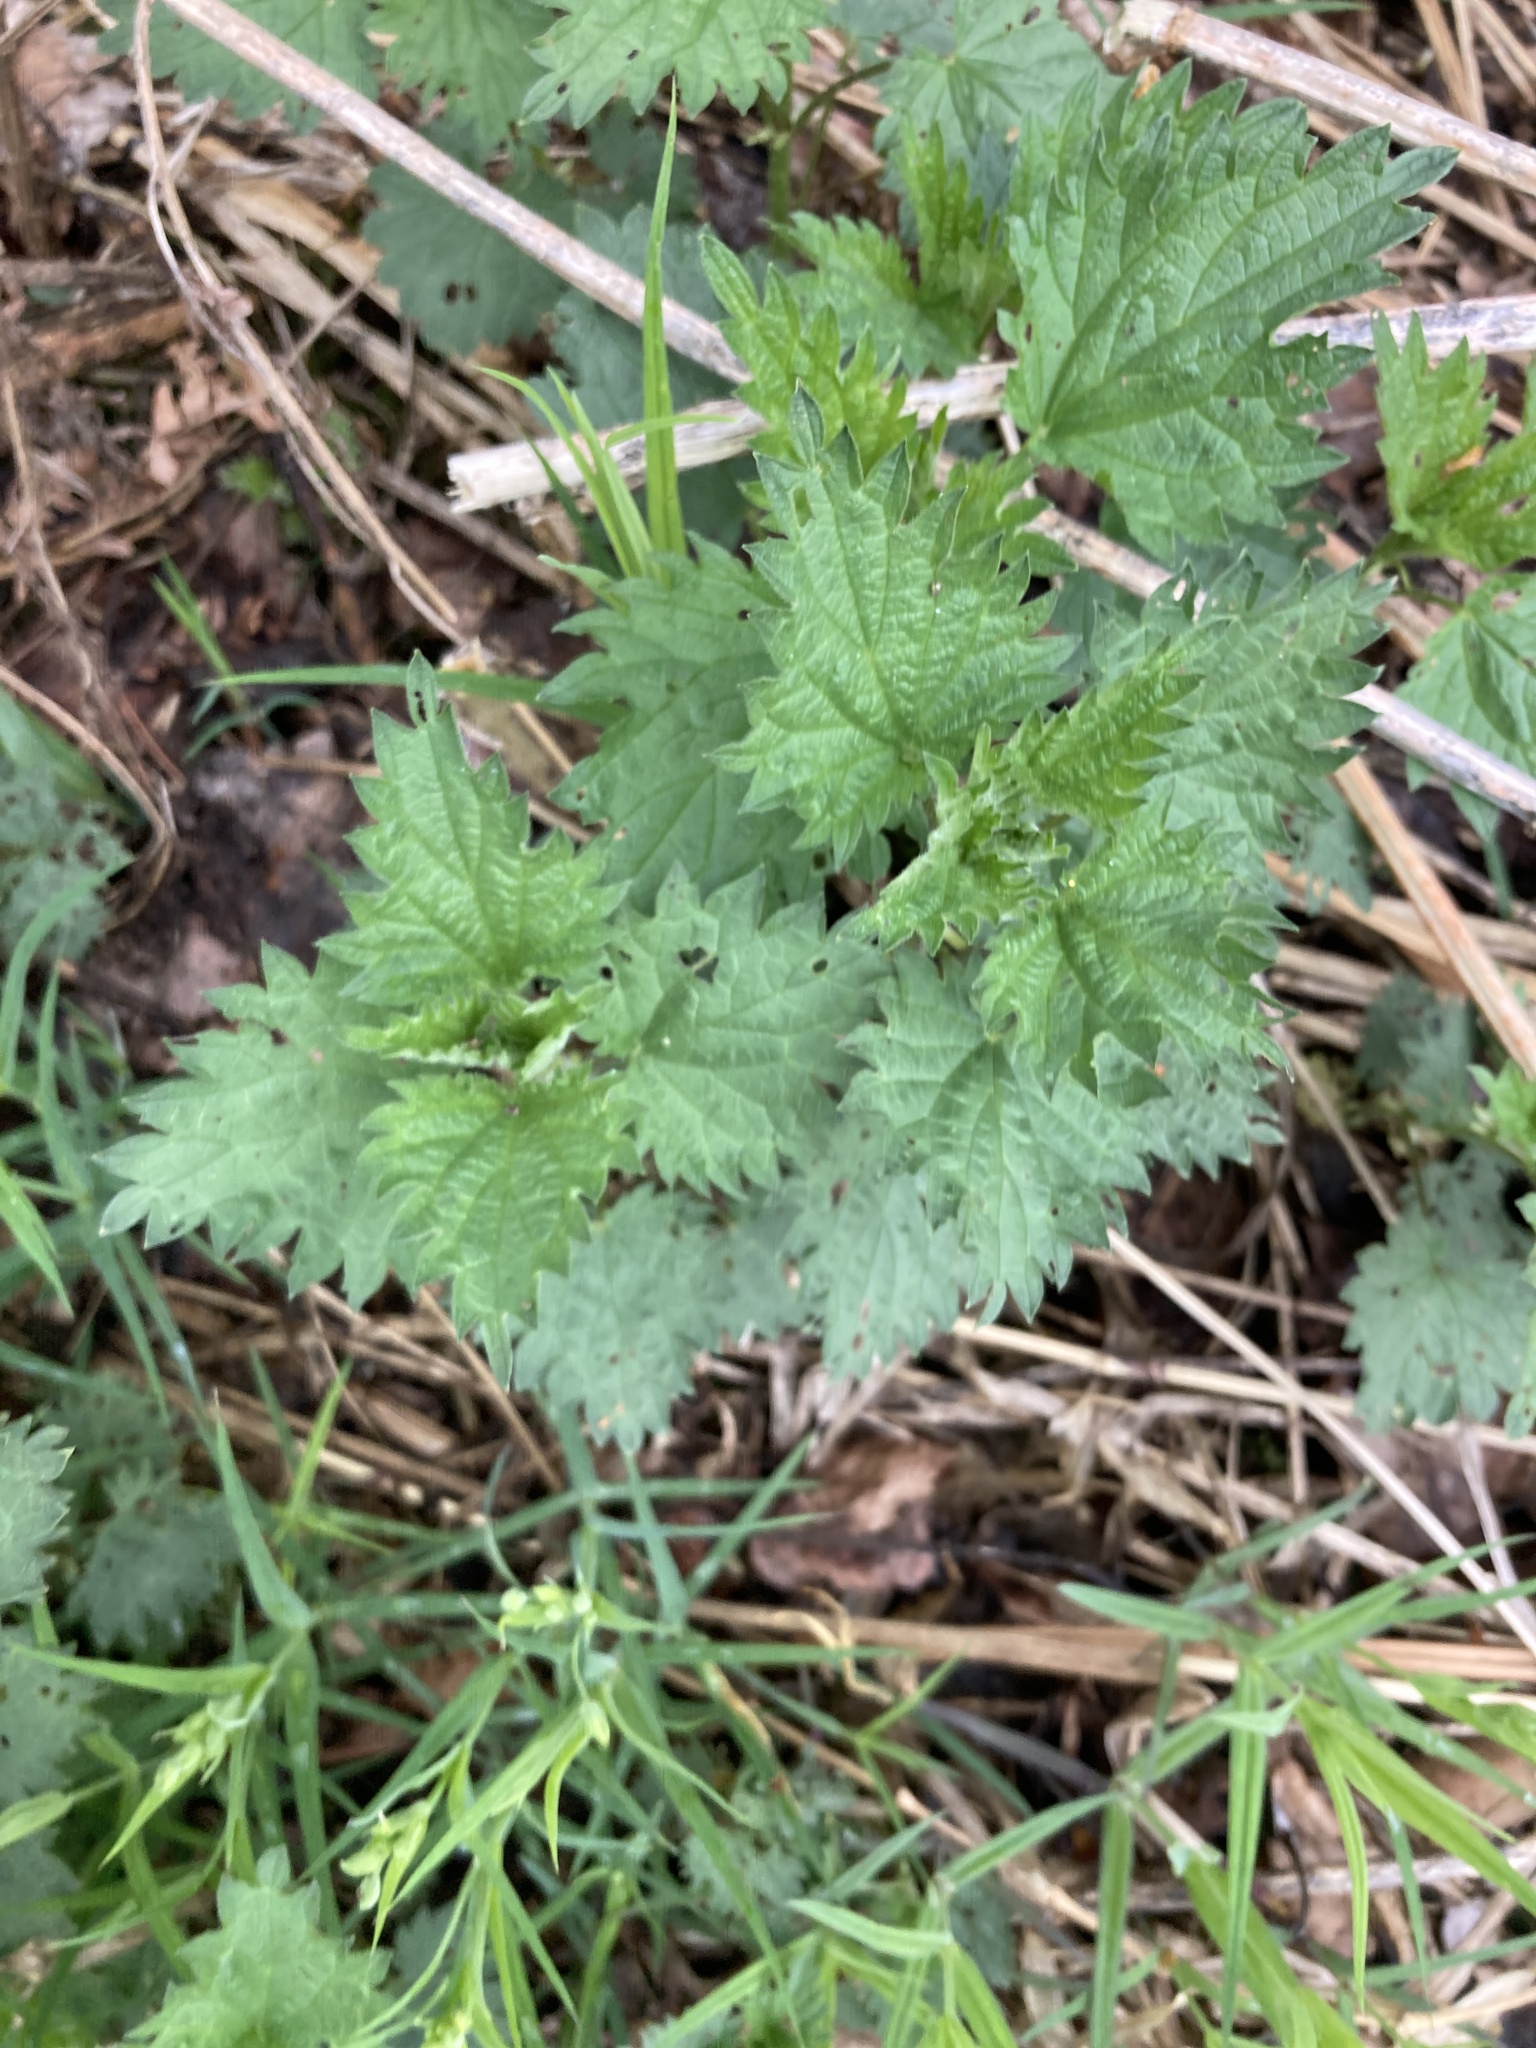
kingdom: Plantae
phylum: Tracheophyta
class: Magnoliopsida
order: Rosales
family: Urticaceae
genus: Urtica
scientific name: Urtica dioica
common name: Common nettle
